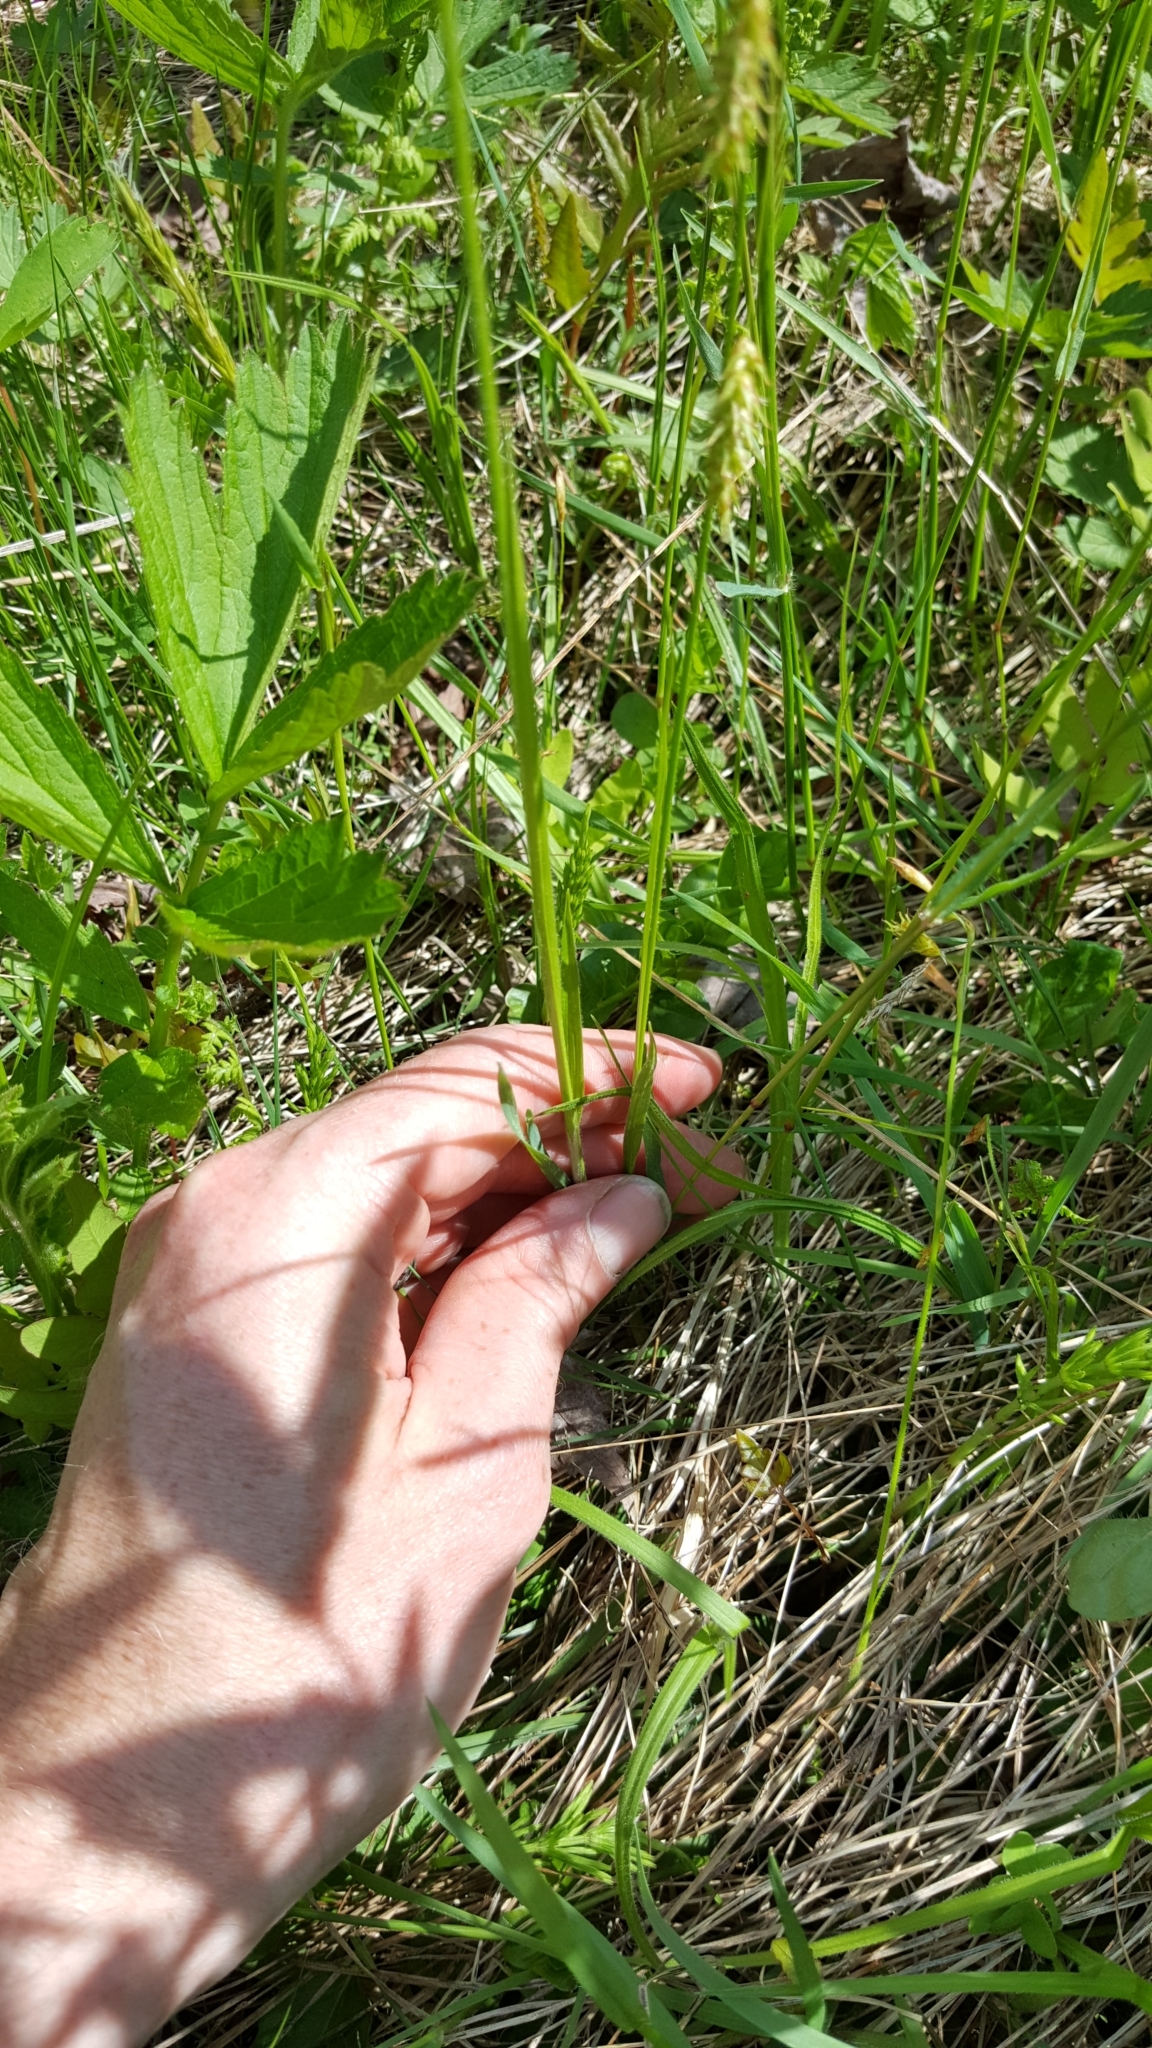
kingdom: Plantae
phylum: Tracheophyta
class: Liliopsida
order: Poales
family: Cyperaceae
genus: Carex
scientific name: Carex castanea
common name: Chestnut sedge
